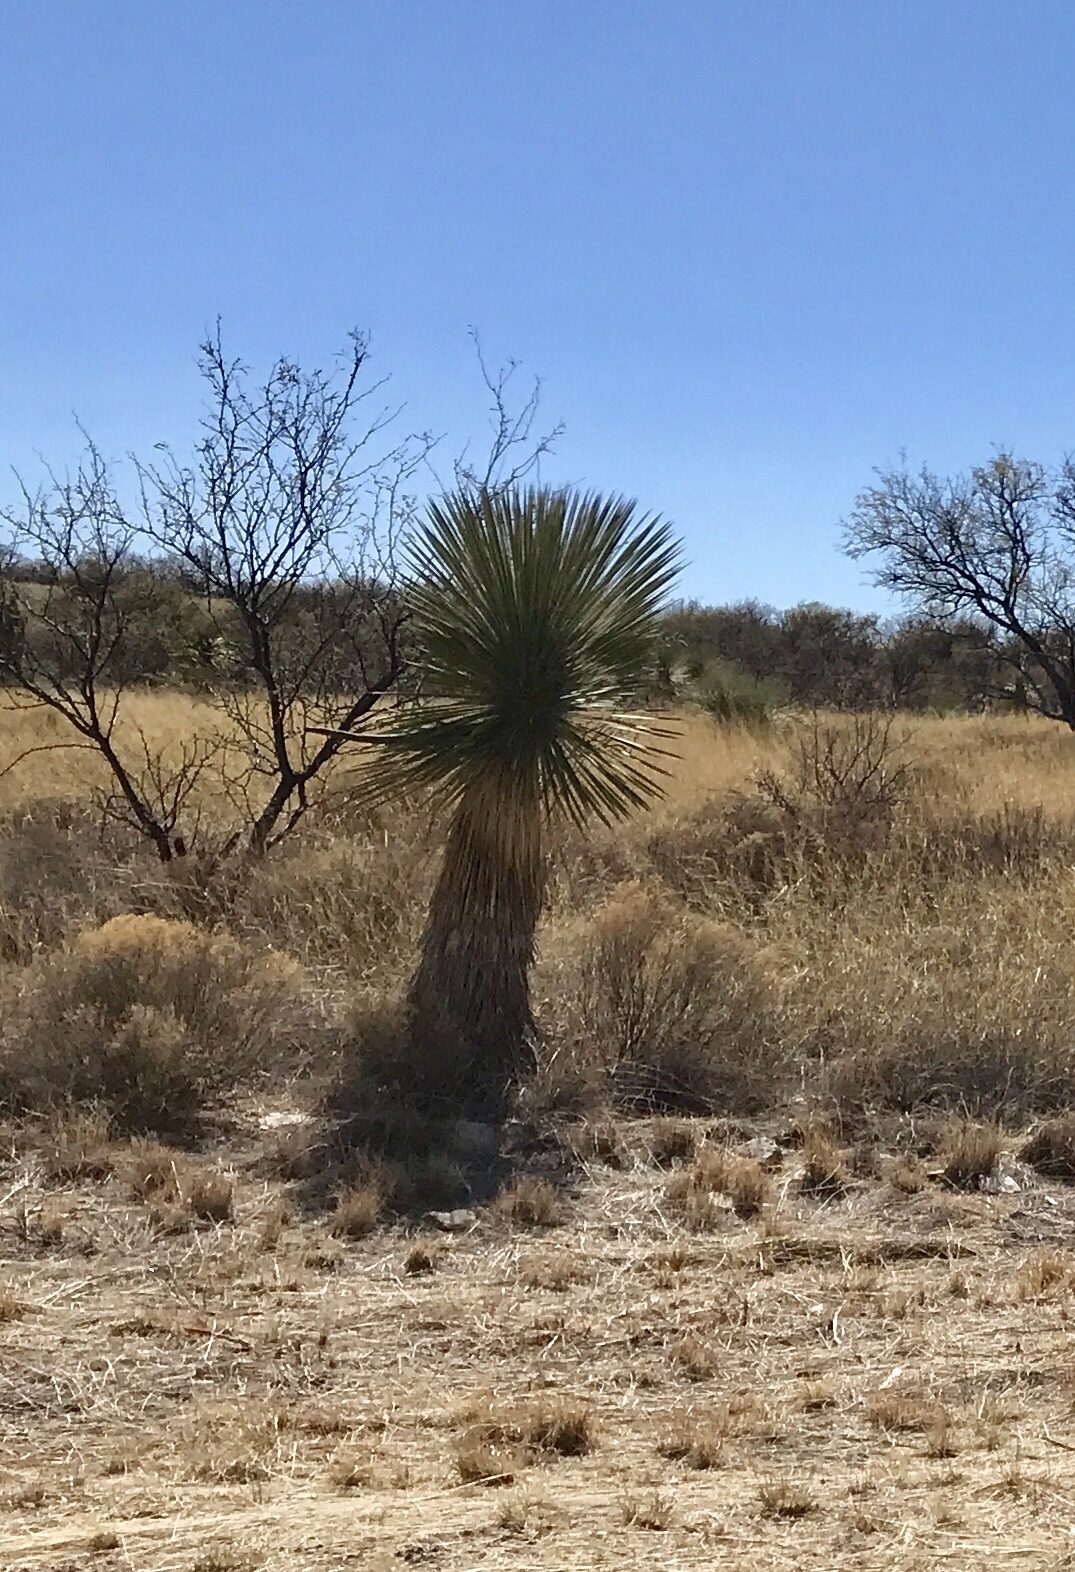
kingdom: Plantae
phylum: Tracheophyta
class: Liliopsida
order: Asparagales
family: Asparagaceae
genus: Yucca
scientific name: Yucca elata
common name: Palmella
